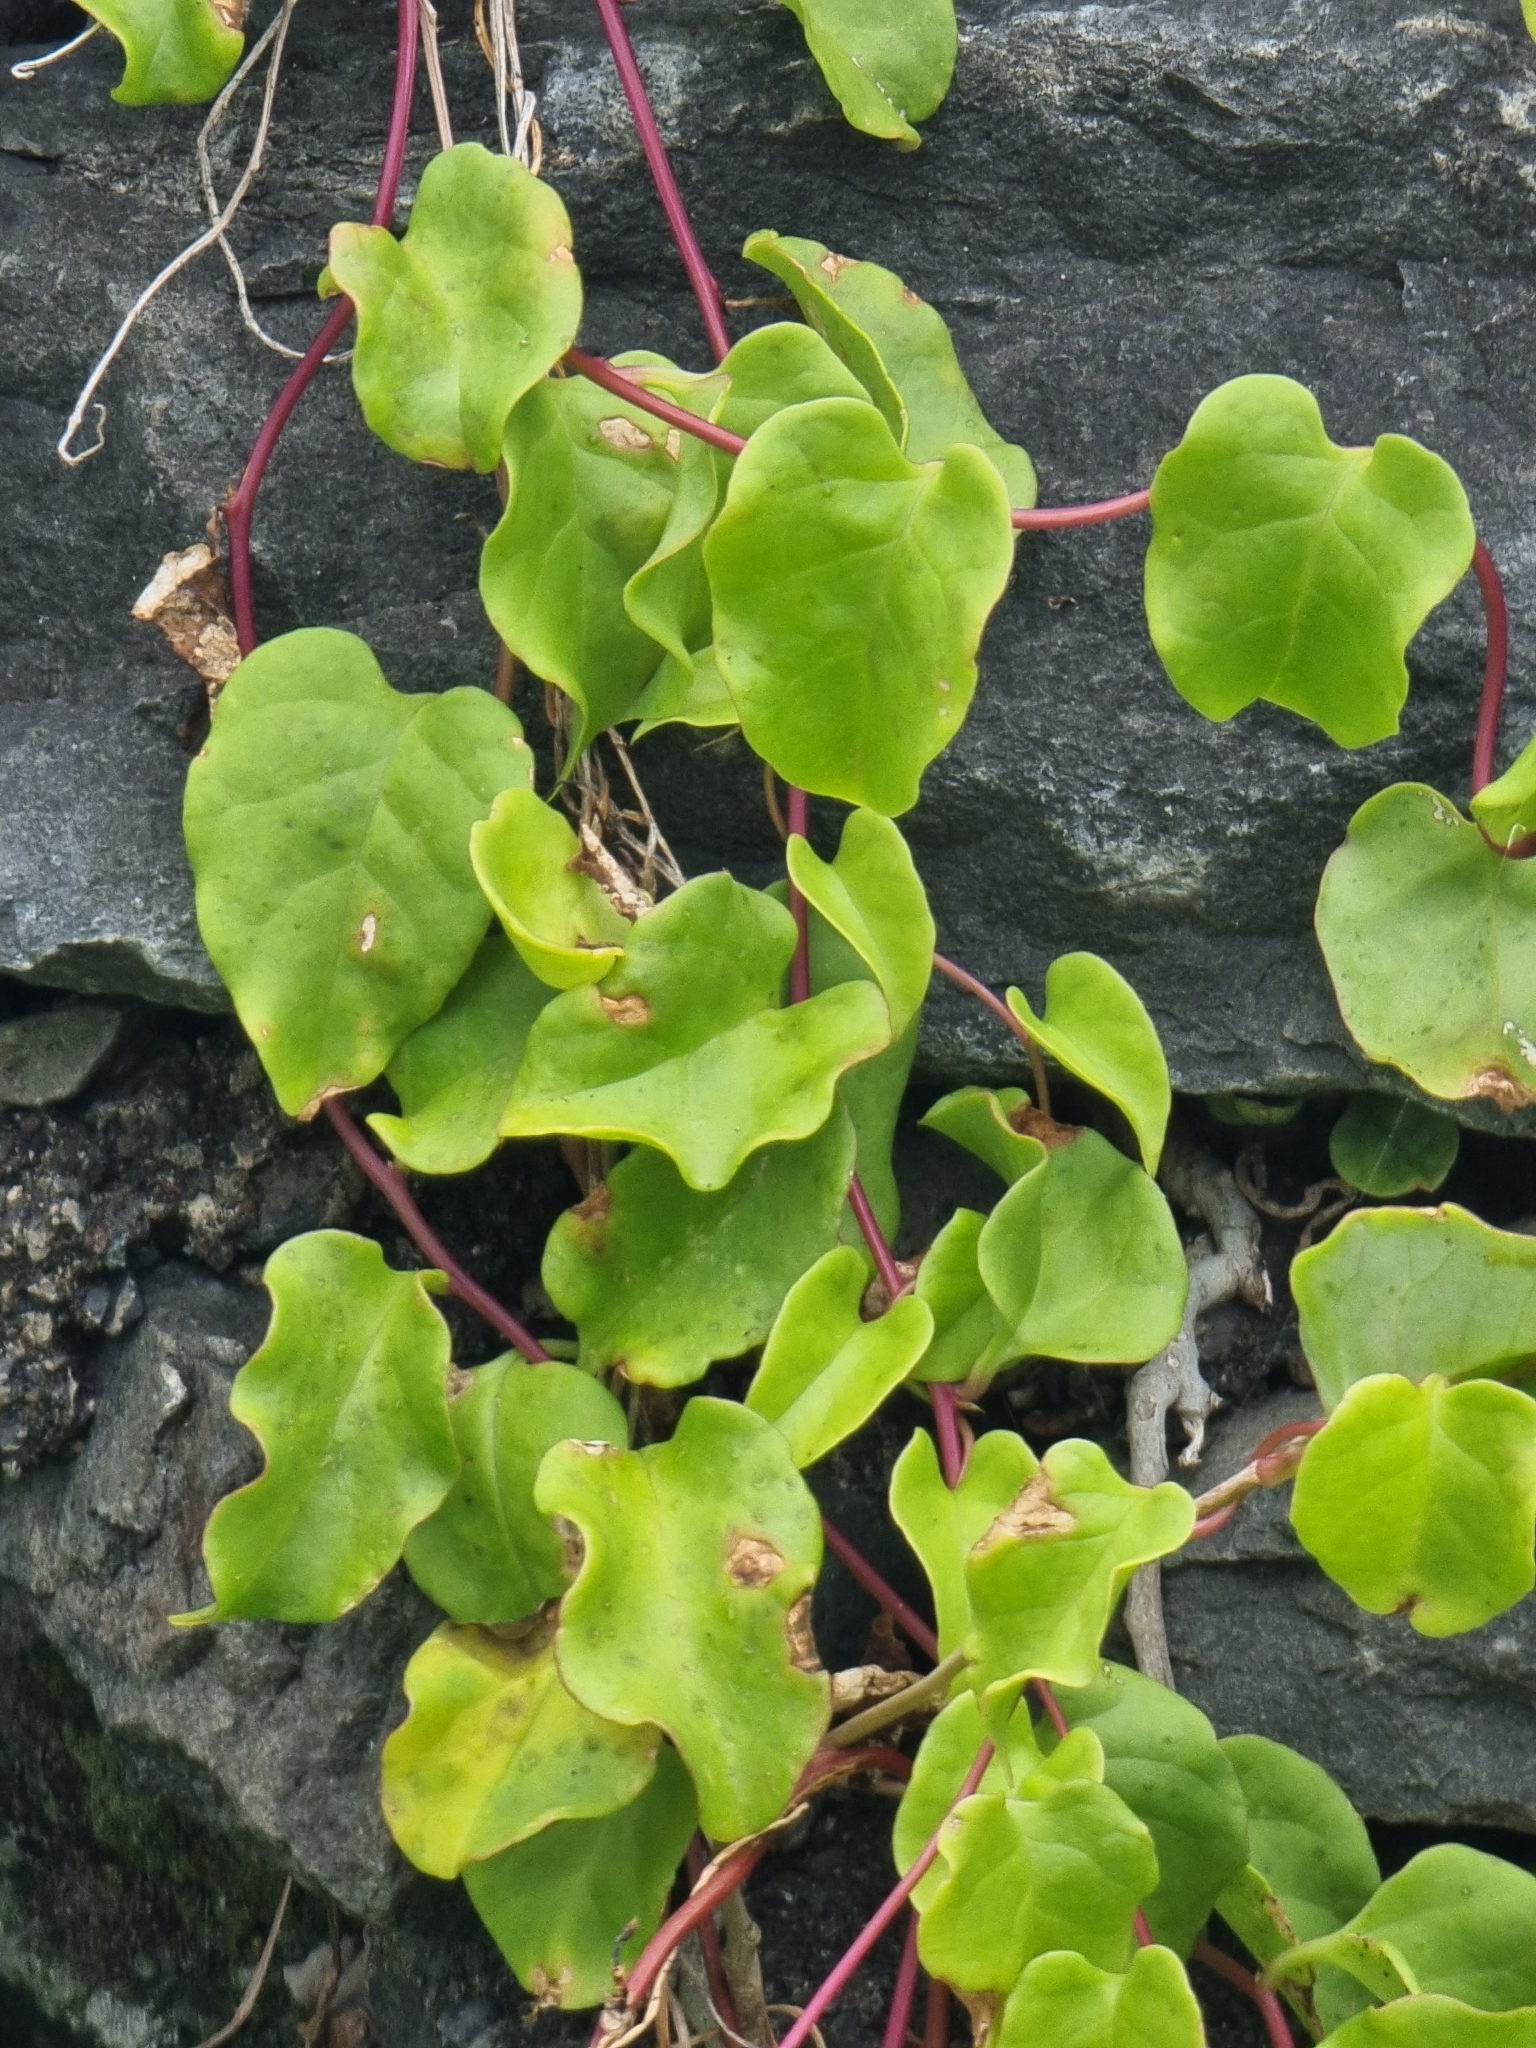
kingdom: Plantae
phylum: Tracheophyta
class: Magnoliopsida
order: Caryophyllales
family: Basellaceae
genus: Anredera
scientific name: Anredera cordifolia
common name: Heartleaf madeiravine
